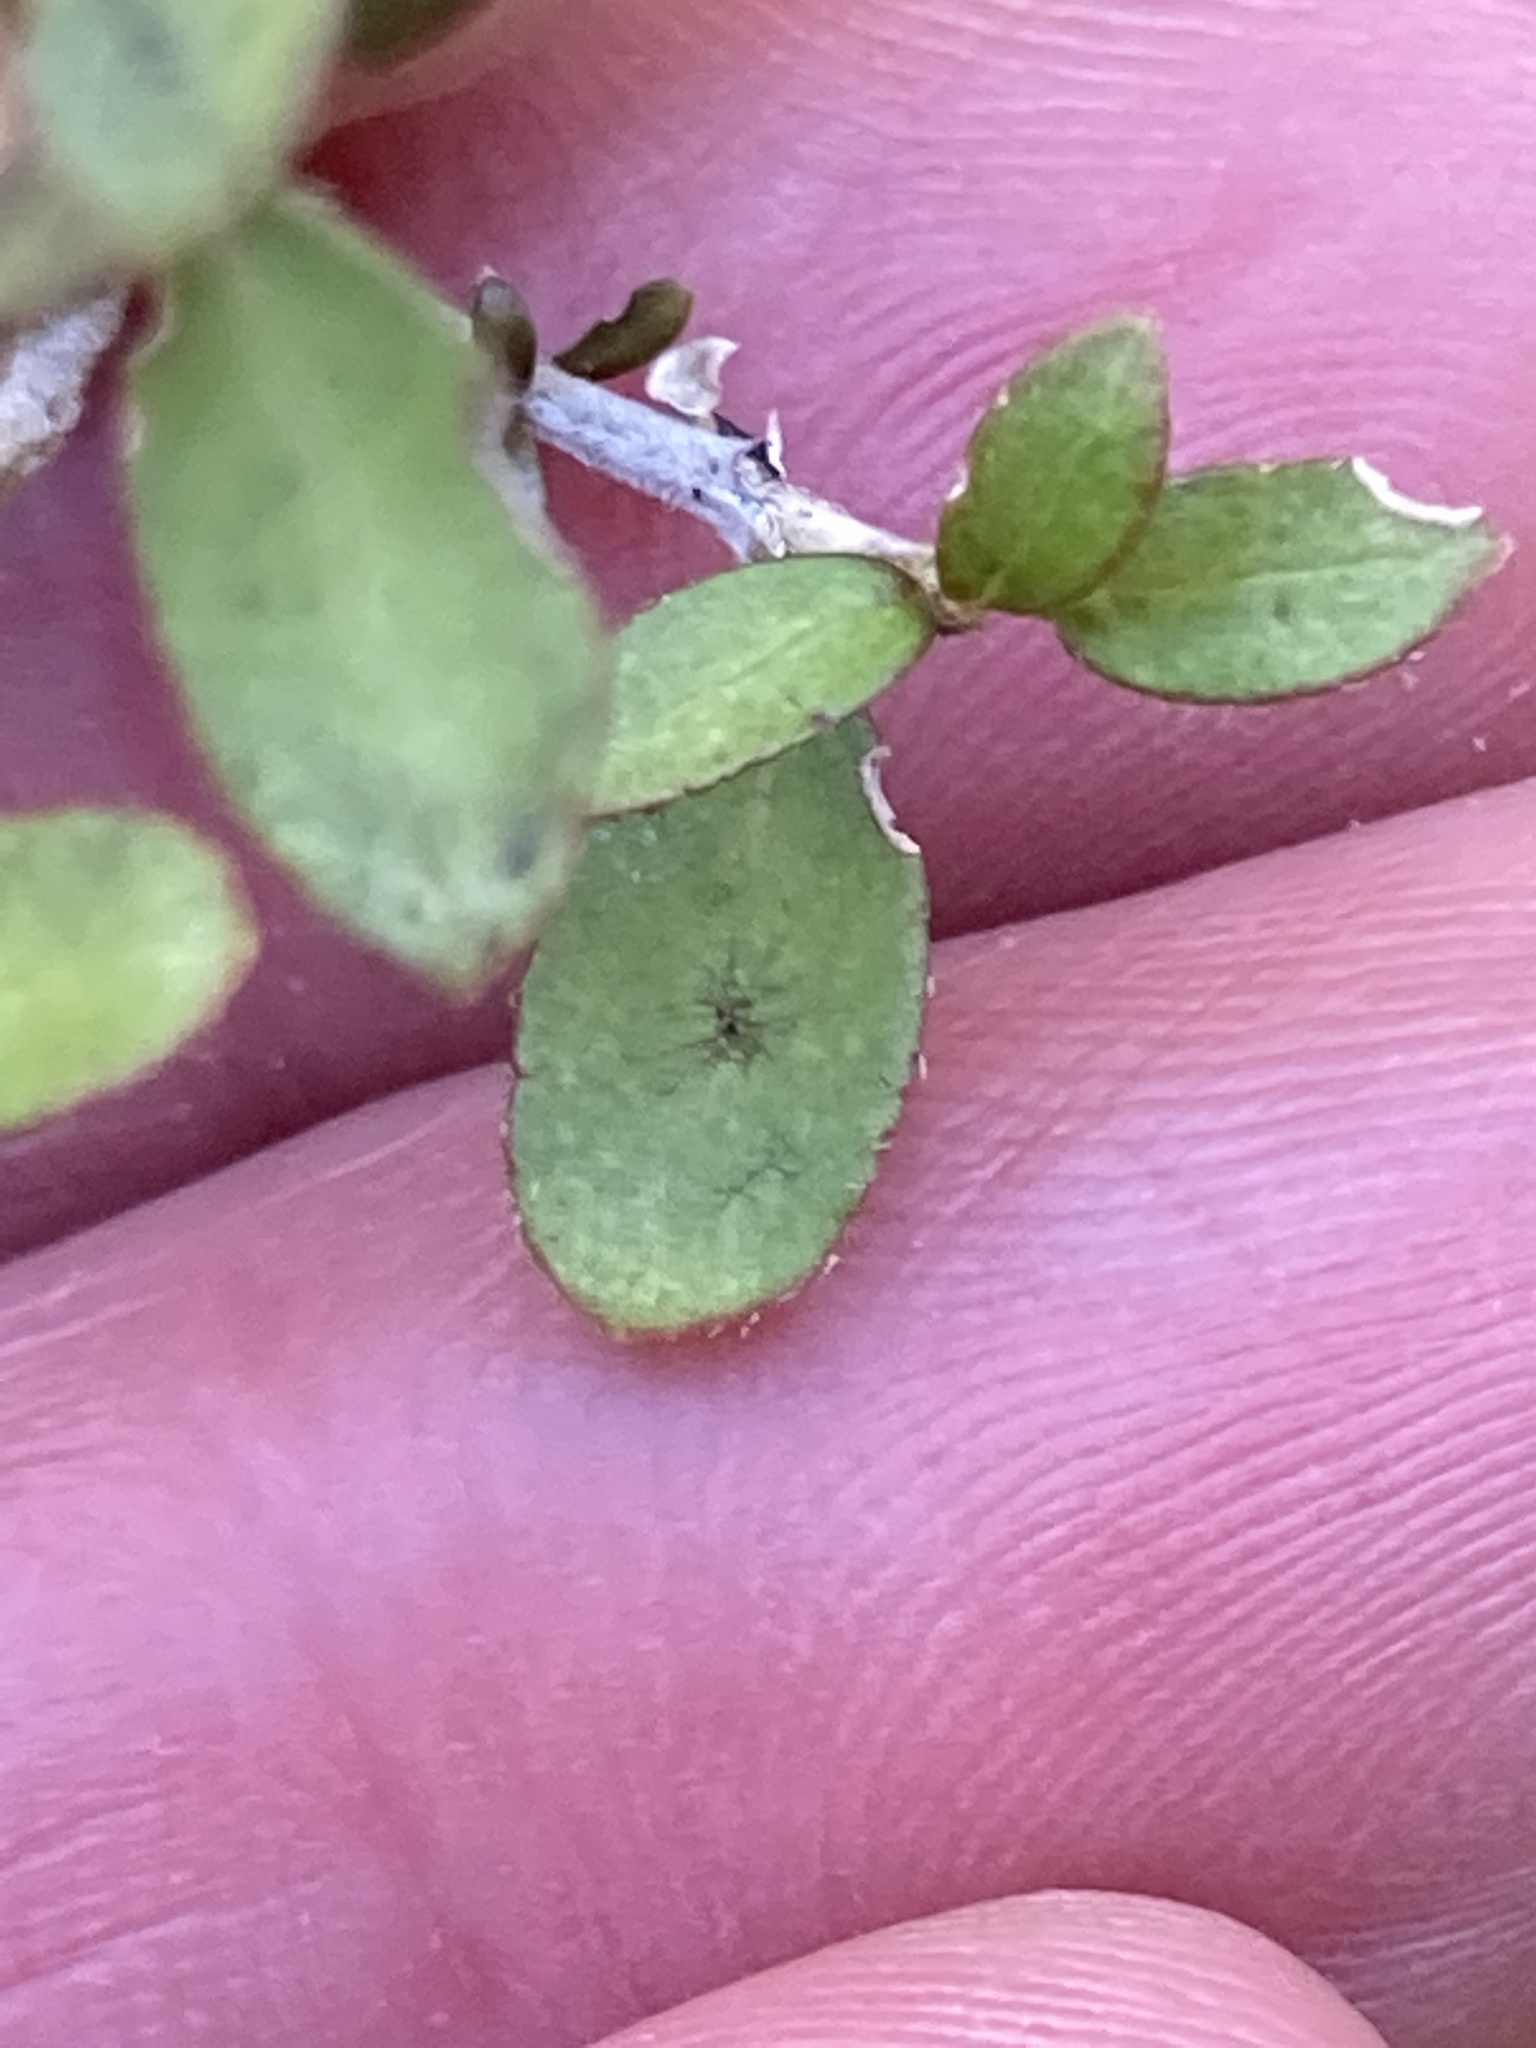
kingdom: Plantae
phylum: Tracheophyta
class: Magnoliopsida
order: Gentianales
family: Rubiaceae
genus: Coprosma
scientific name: Coprosma pseudociliata
